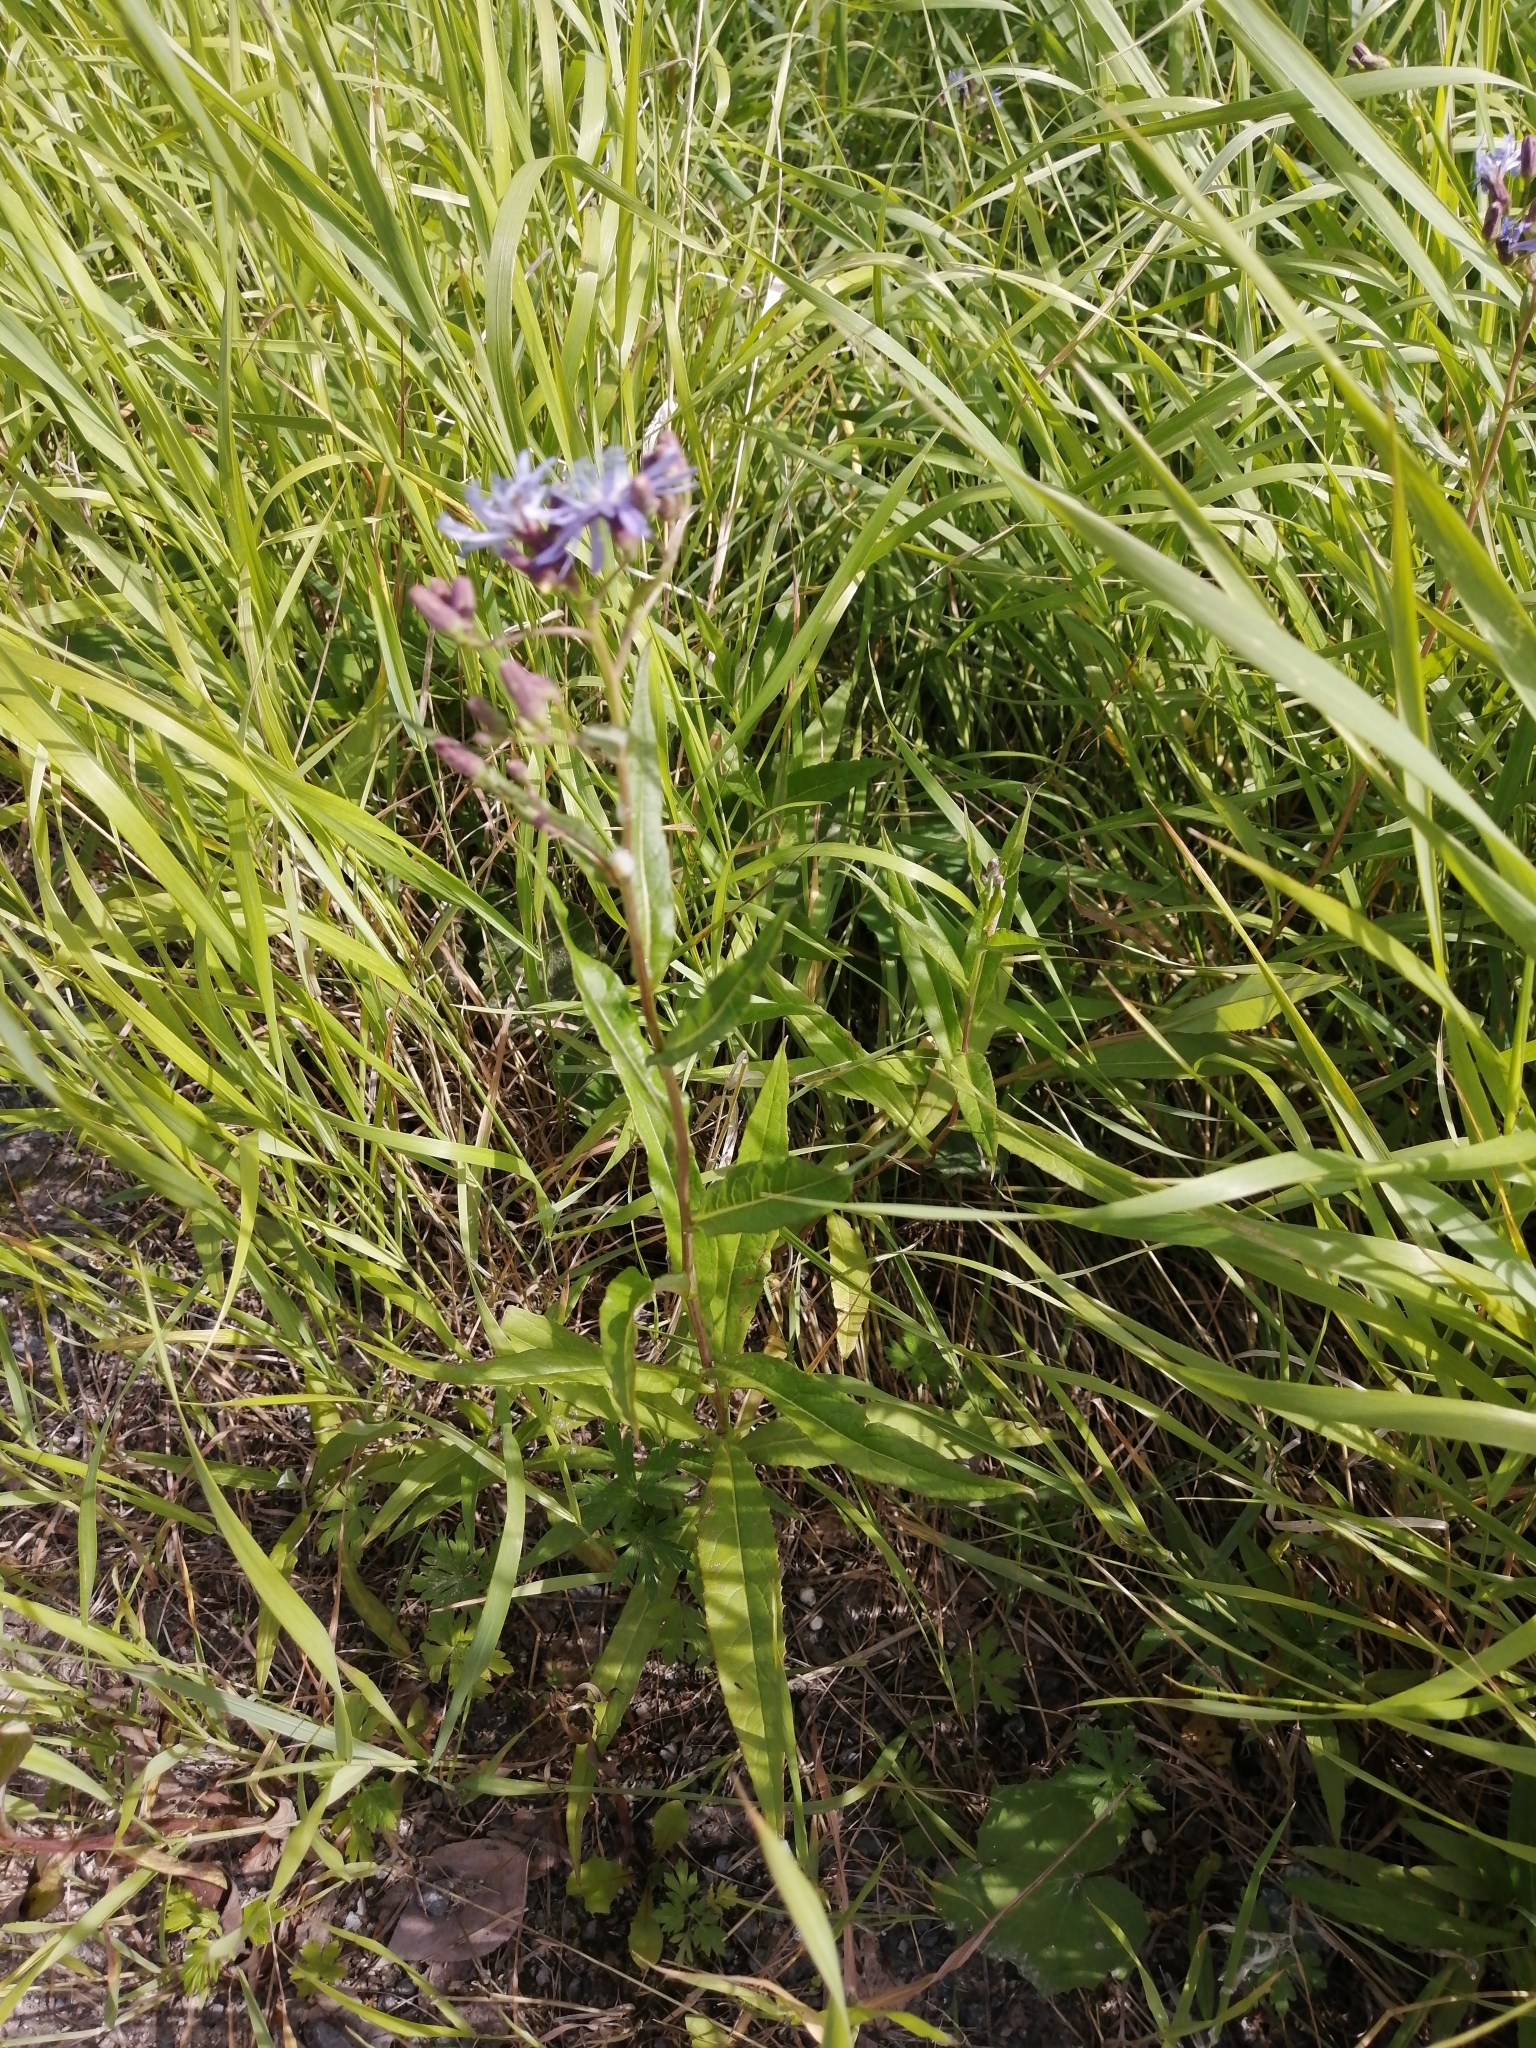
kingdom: Plantae
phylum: Tracheophyta
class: Magnoliopsida
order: Asterales
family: Asteraceae
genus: Lactuca
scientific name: Lactuca sibirica
